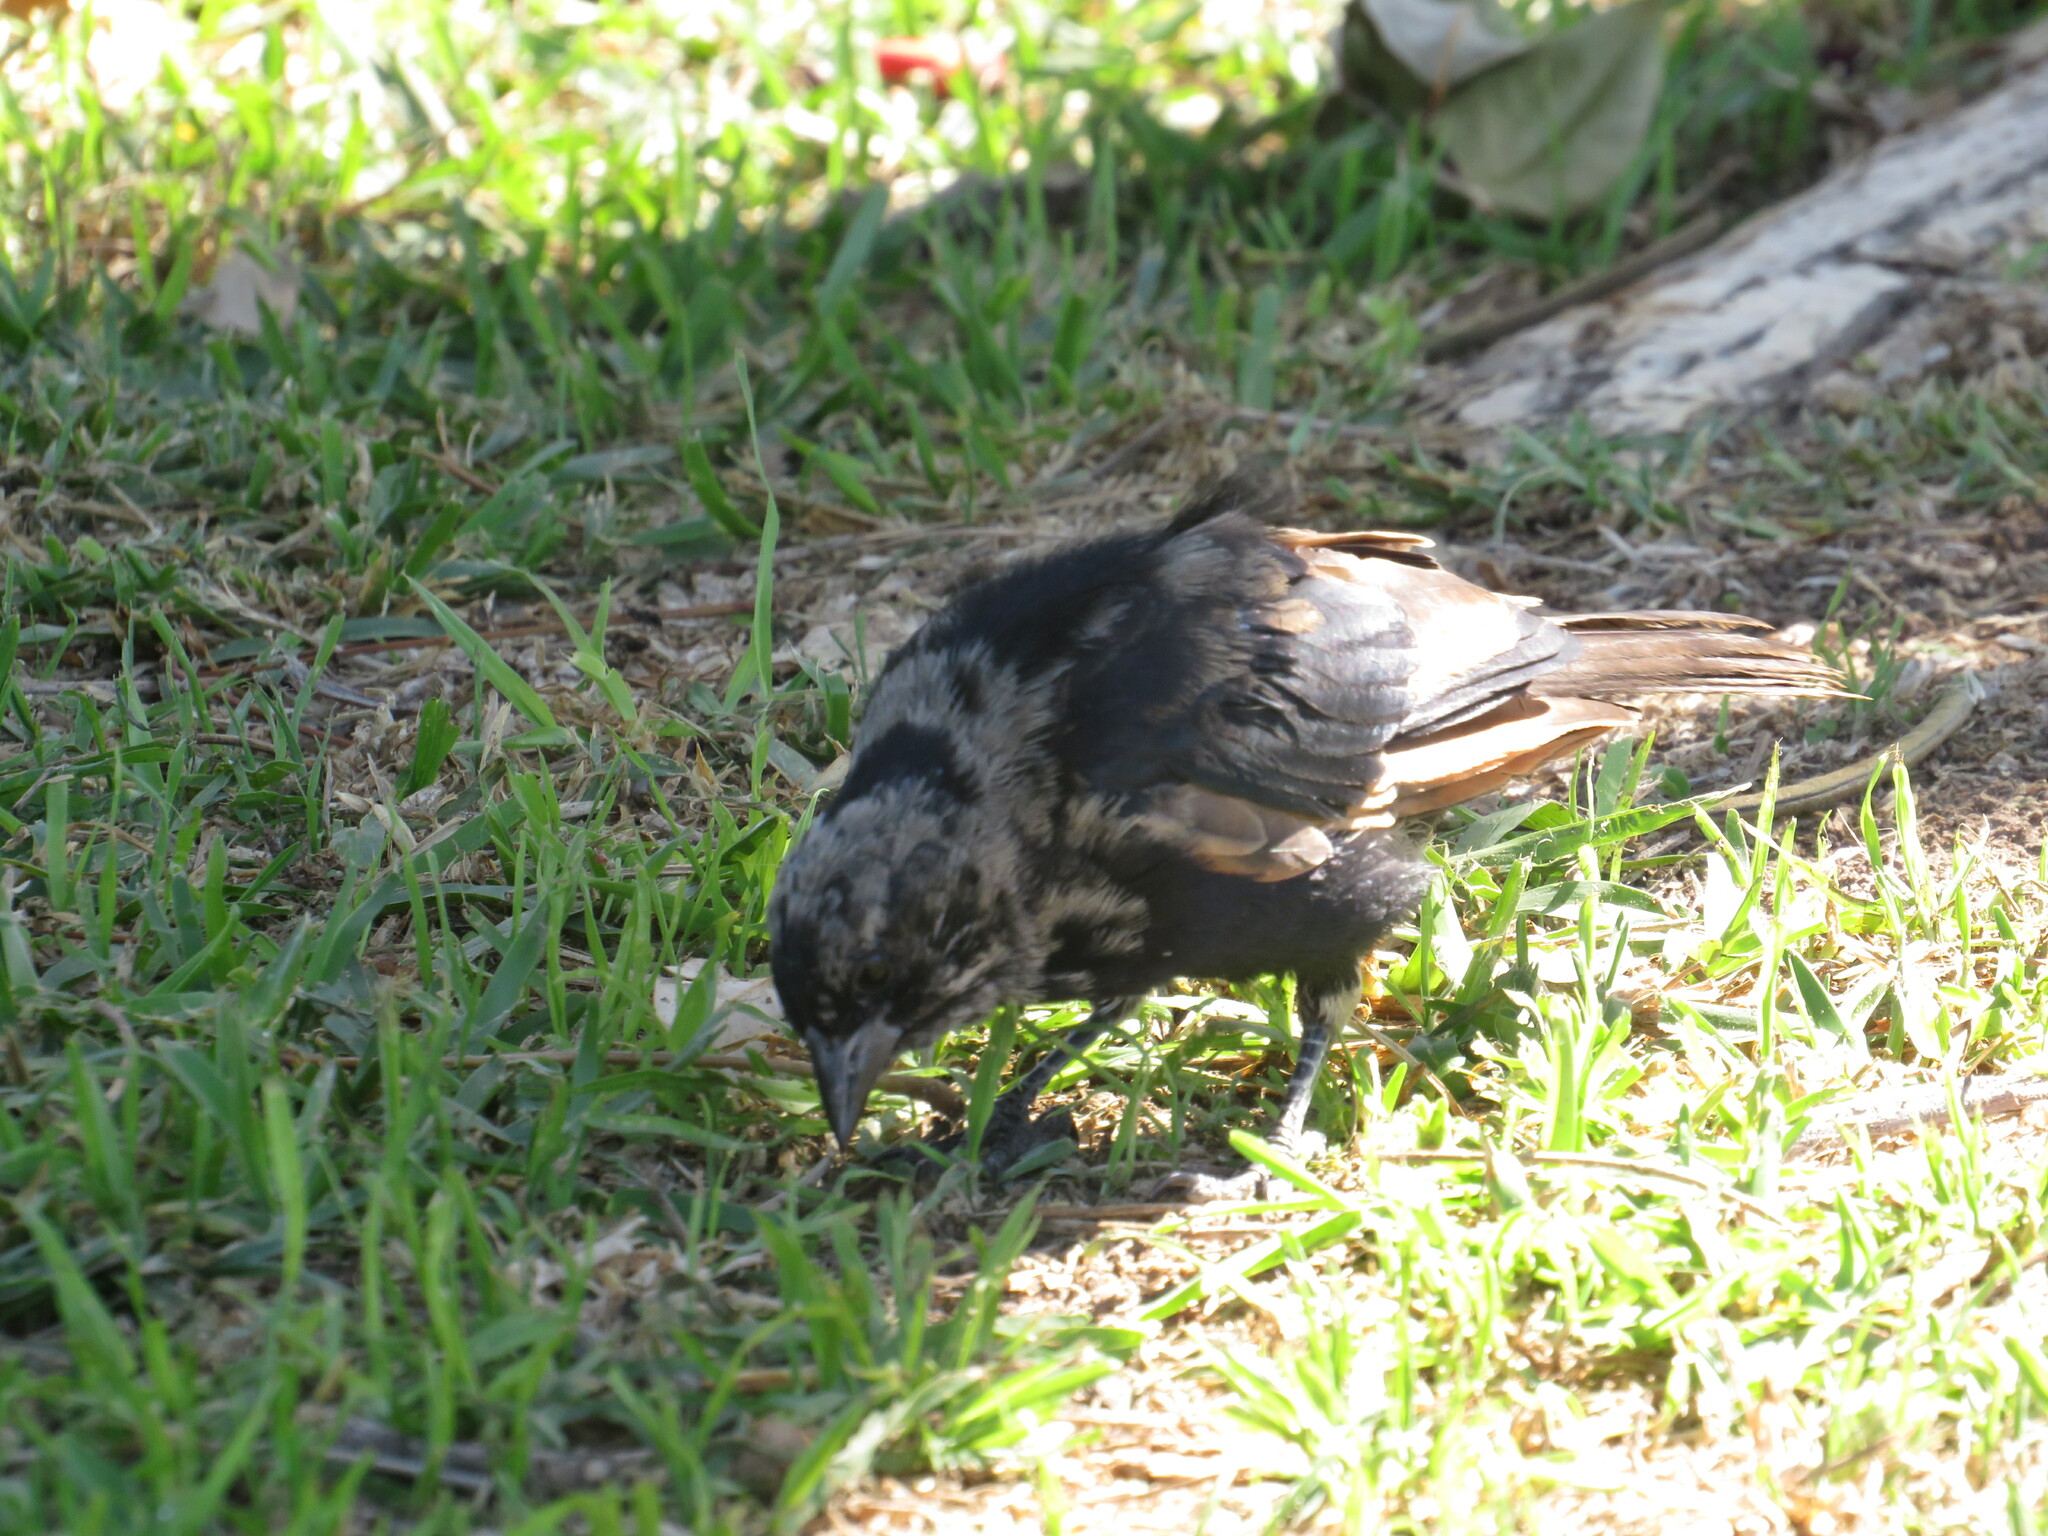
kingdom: Animalia
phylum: Chordata
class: Aves
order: Passeriformes
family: Icteridae
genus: Molothrus
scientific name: Molothrus rufoaxillaris
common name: Screaming cowbird
